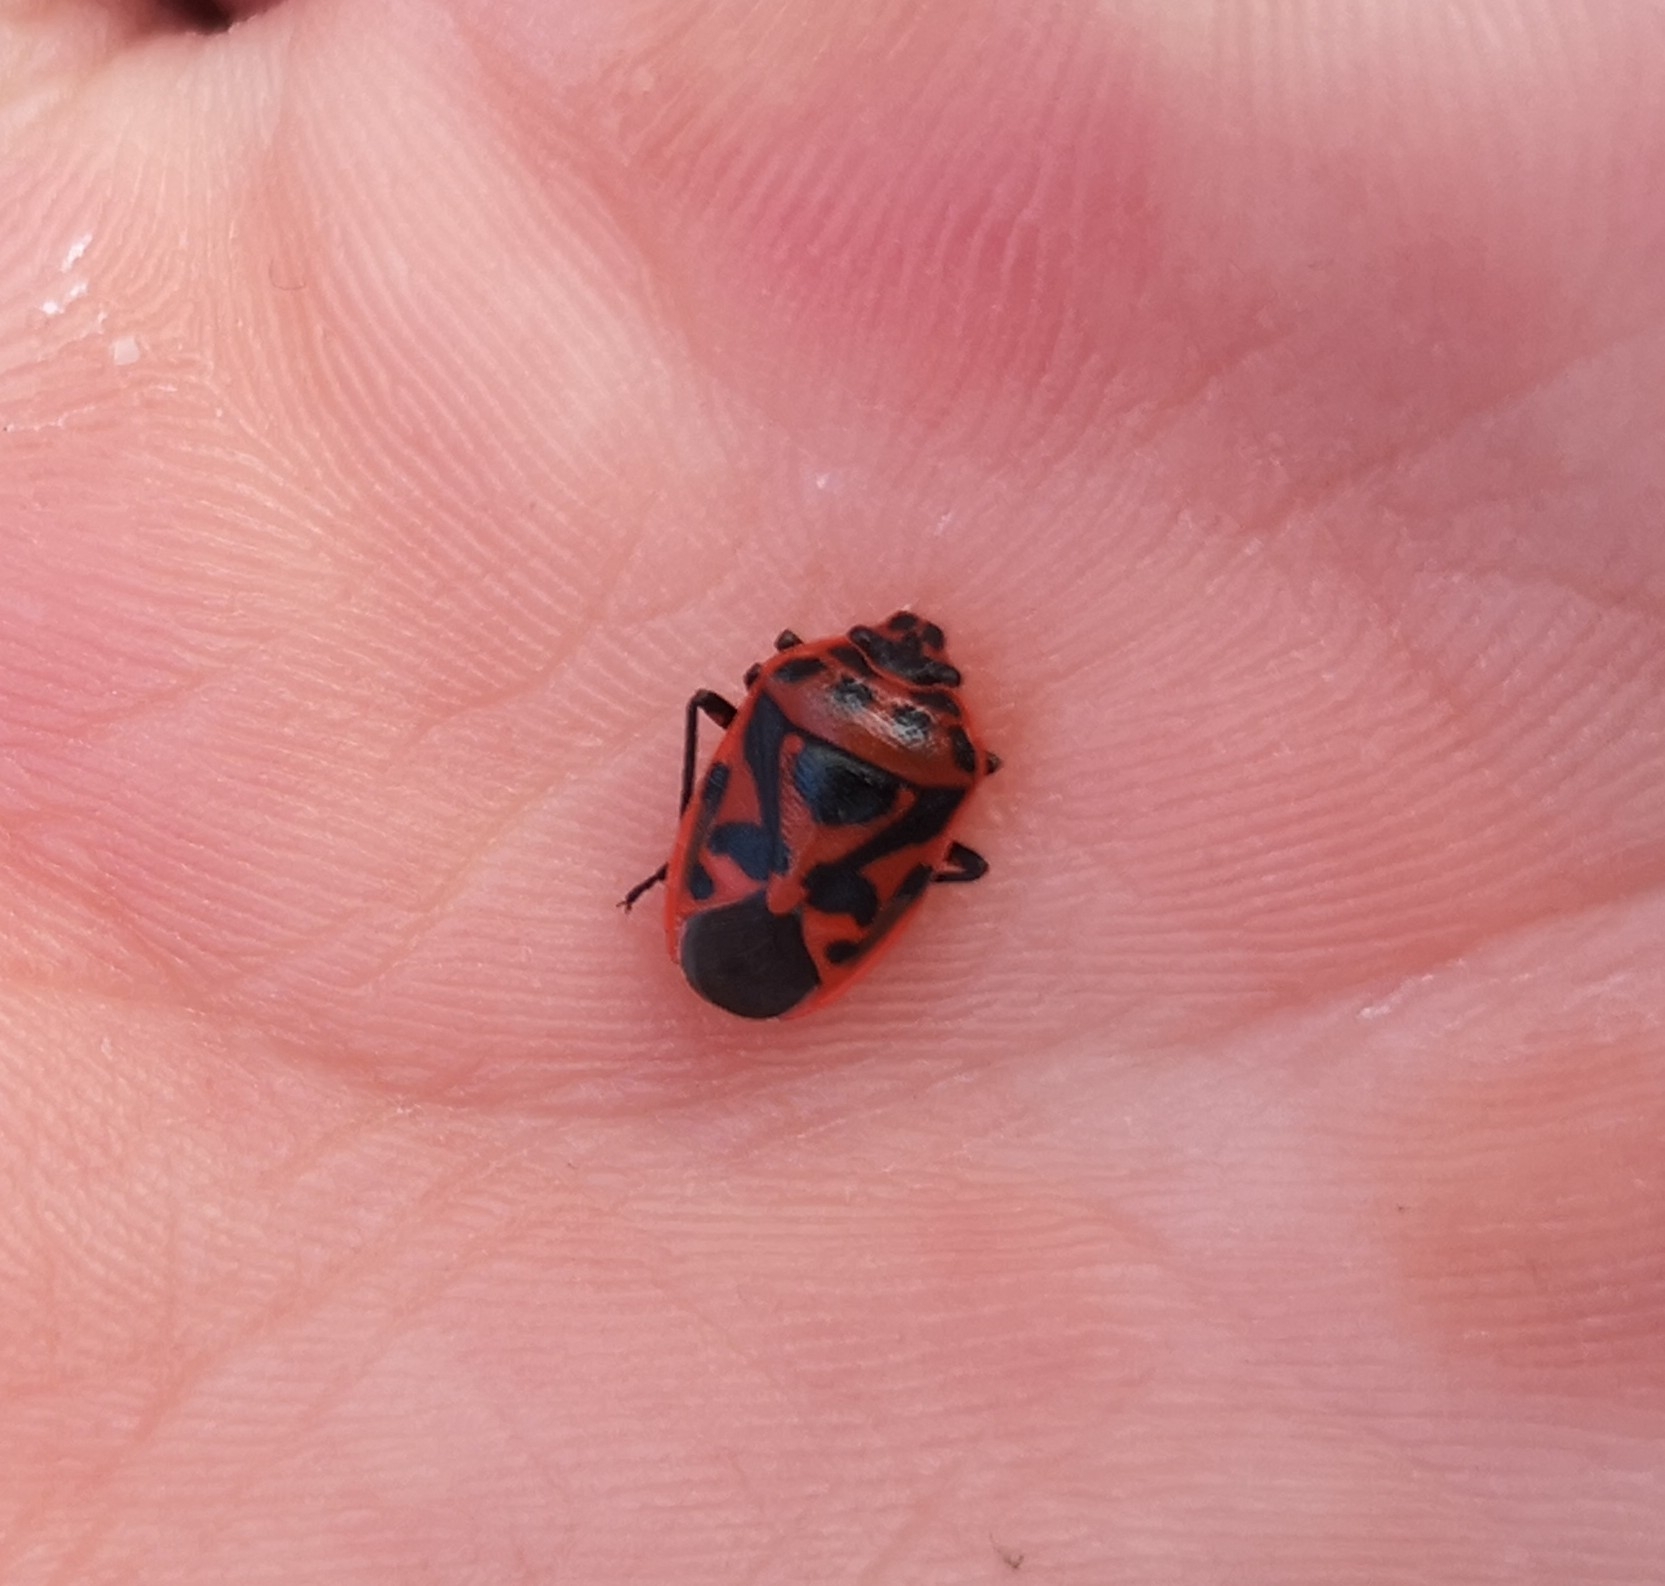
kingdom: Animalia
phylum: Arthropoda
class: Insecta
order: Hemiptera
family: Pentatomidae
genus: Eurydema
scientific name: Eurydema ornata
